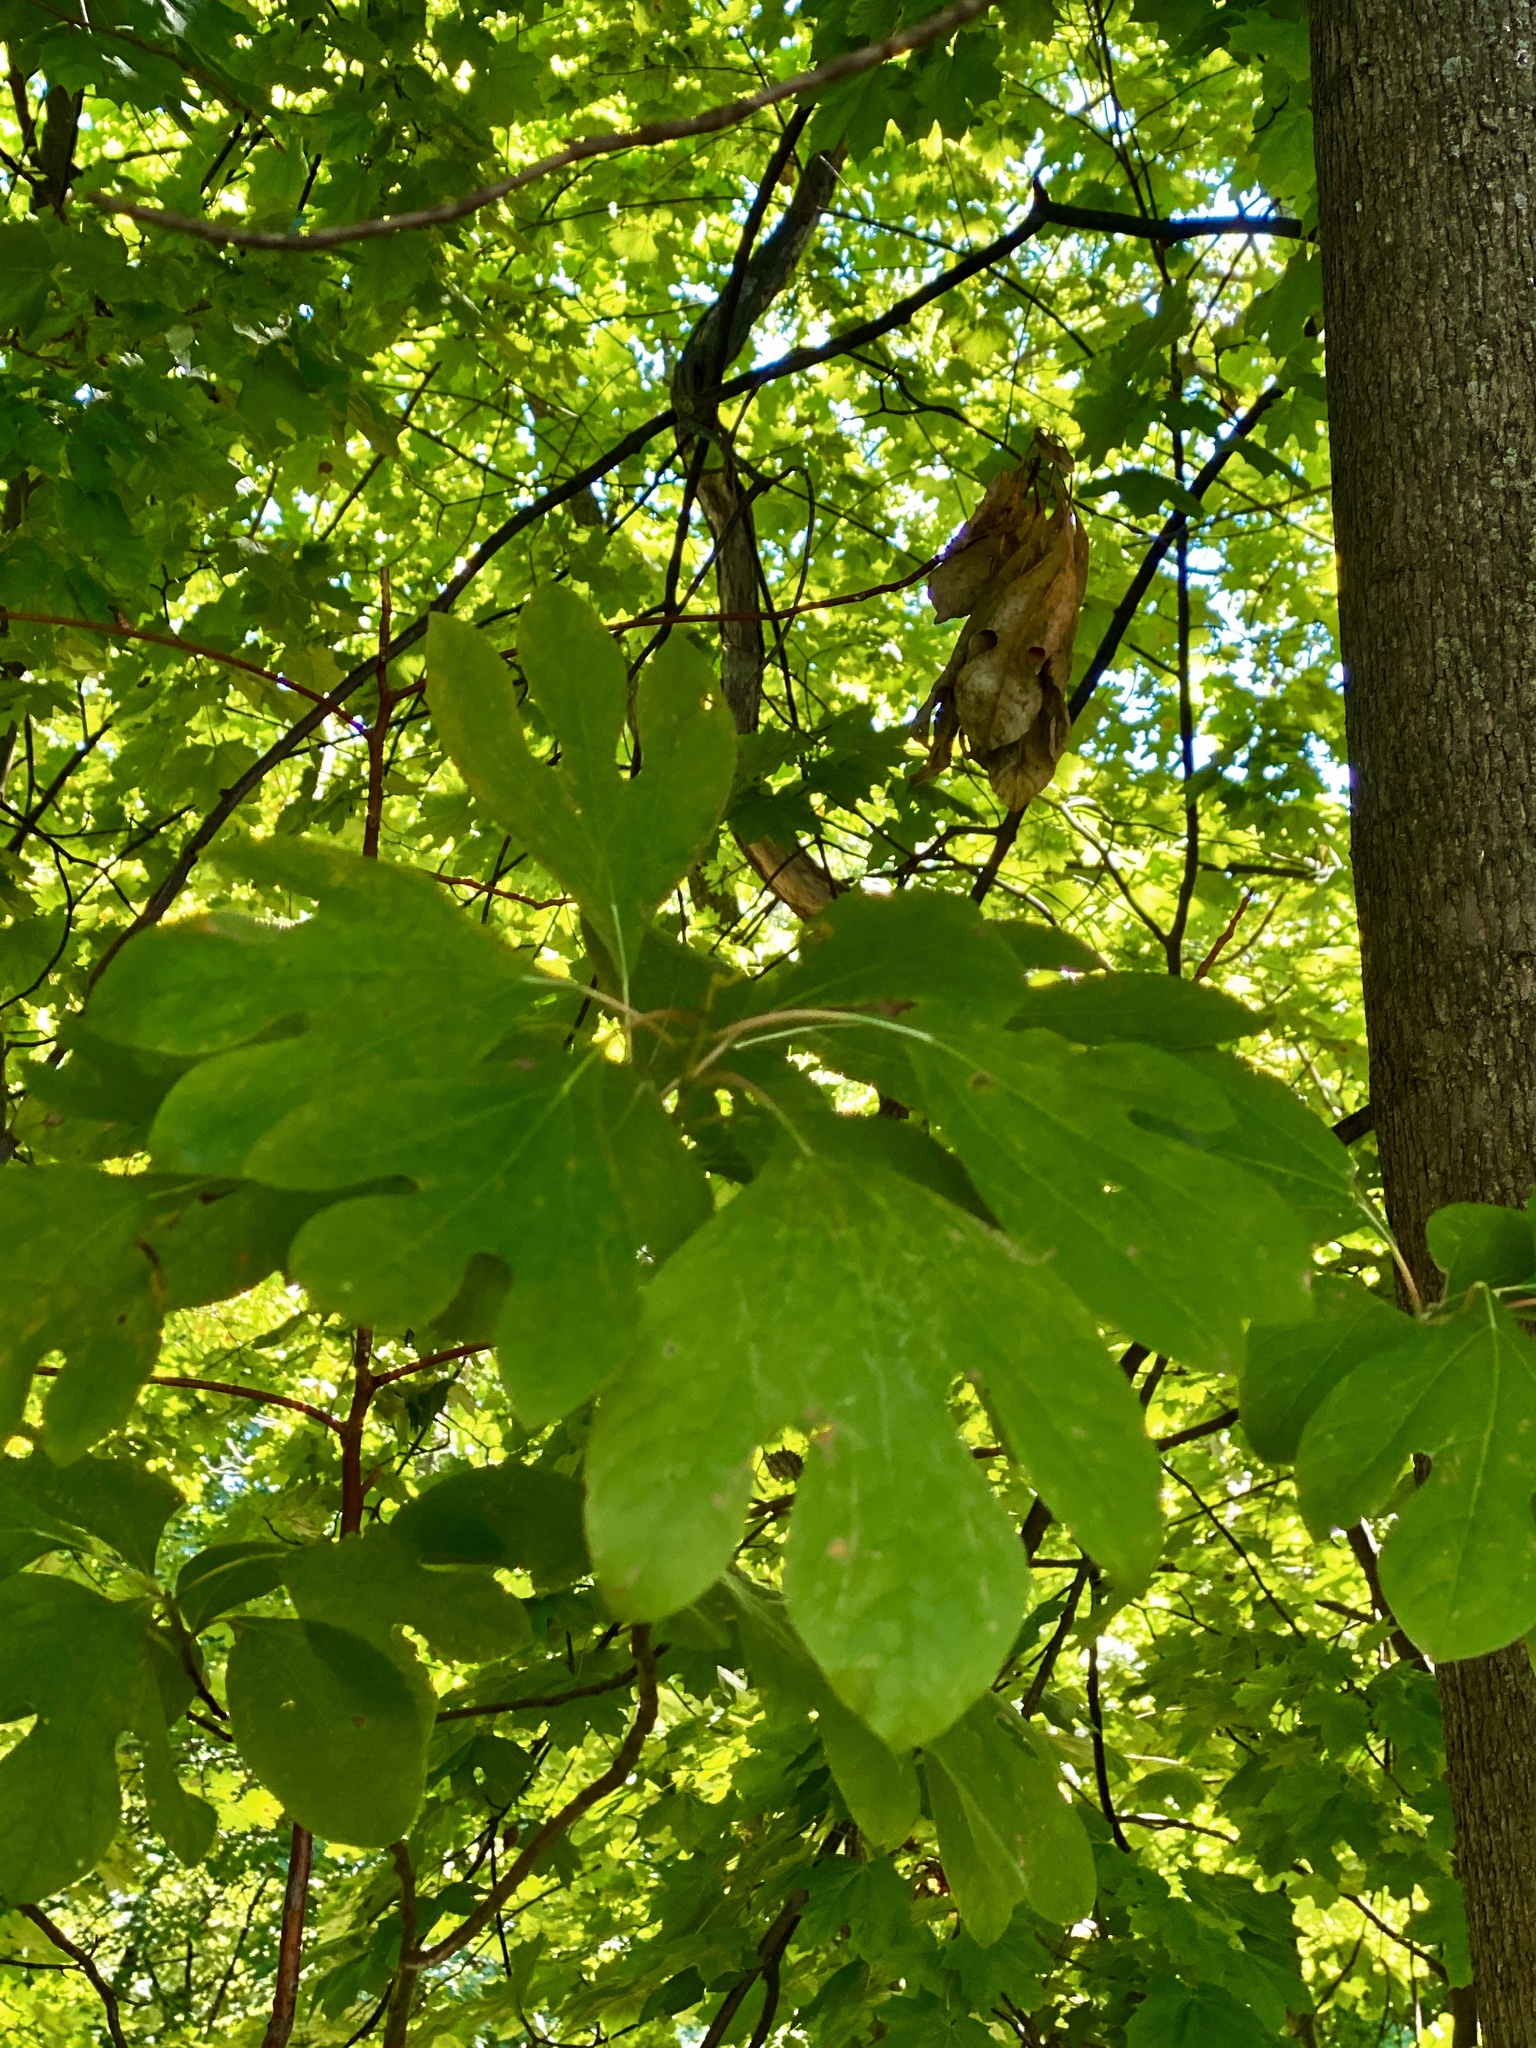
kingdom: Plantae
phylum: Tracheophyta
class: Magnoliopsida
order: Laurales
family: Lauraceae
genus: Sassafras
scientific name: Sassafras albidum
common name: Sassafras
